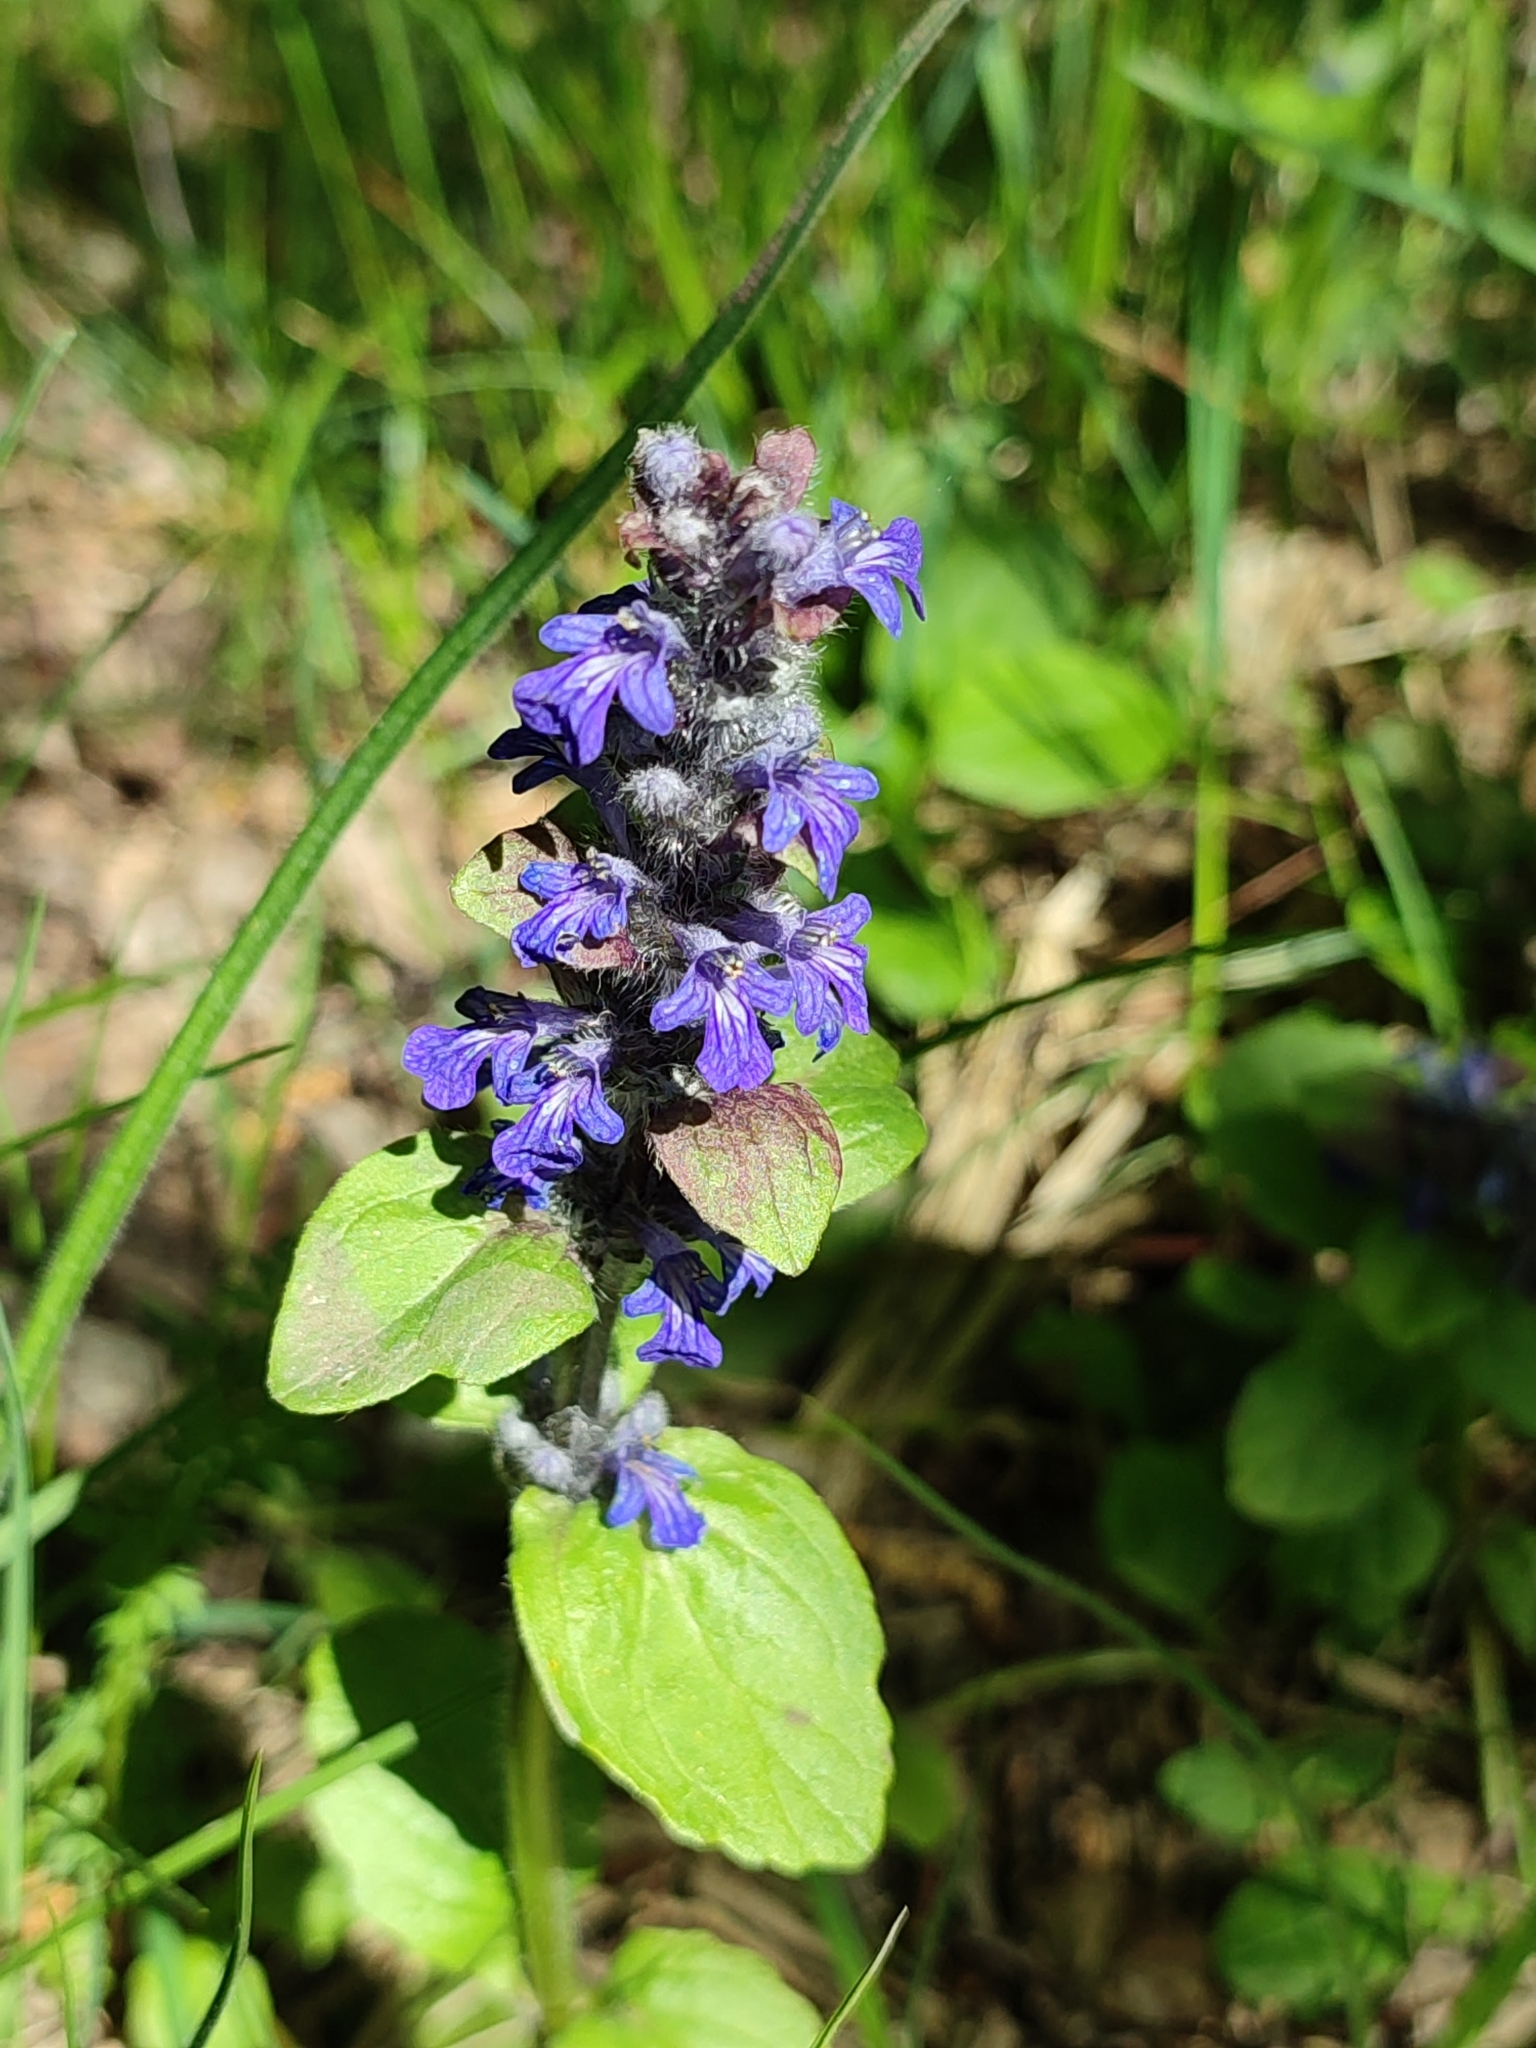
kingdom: Plantae
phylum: Tracheophyta
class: Magnoliopsida
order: Lamiales
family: Lamiaceae
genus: Ajuga
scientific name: Ajuga reptans
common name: Bugle
